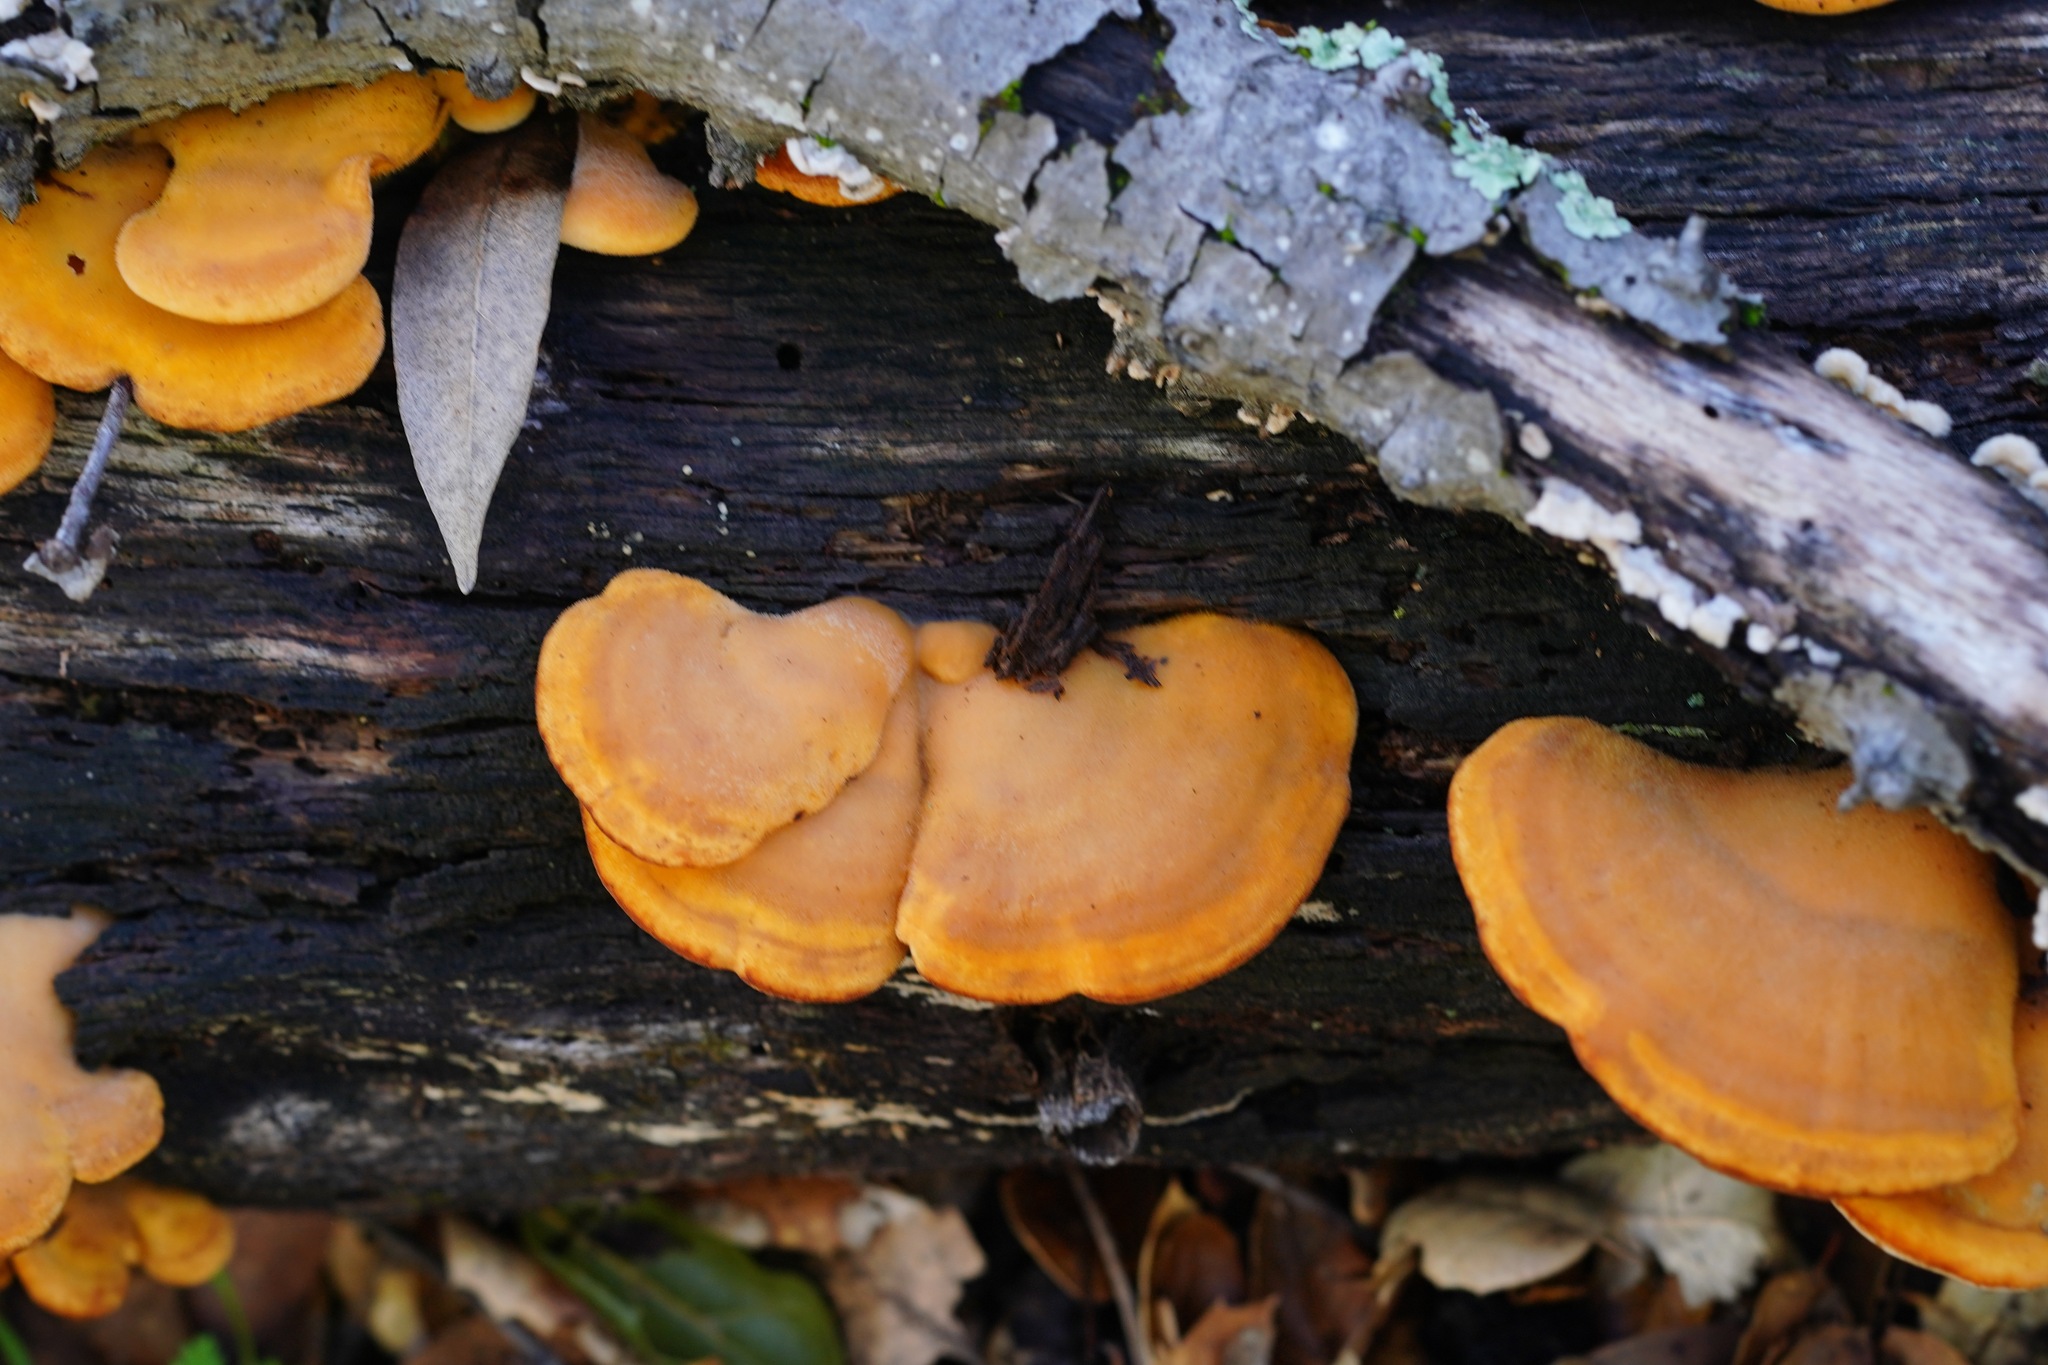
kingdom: Fungi
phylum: Basidiomycota
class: Agaricomycetes
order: Agaricales
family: Phyllotopsidaceae
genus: Phyllotopsis
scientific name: Phyllotopsis nidulans
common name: Orange mock oyster
